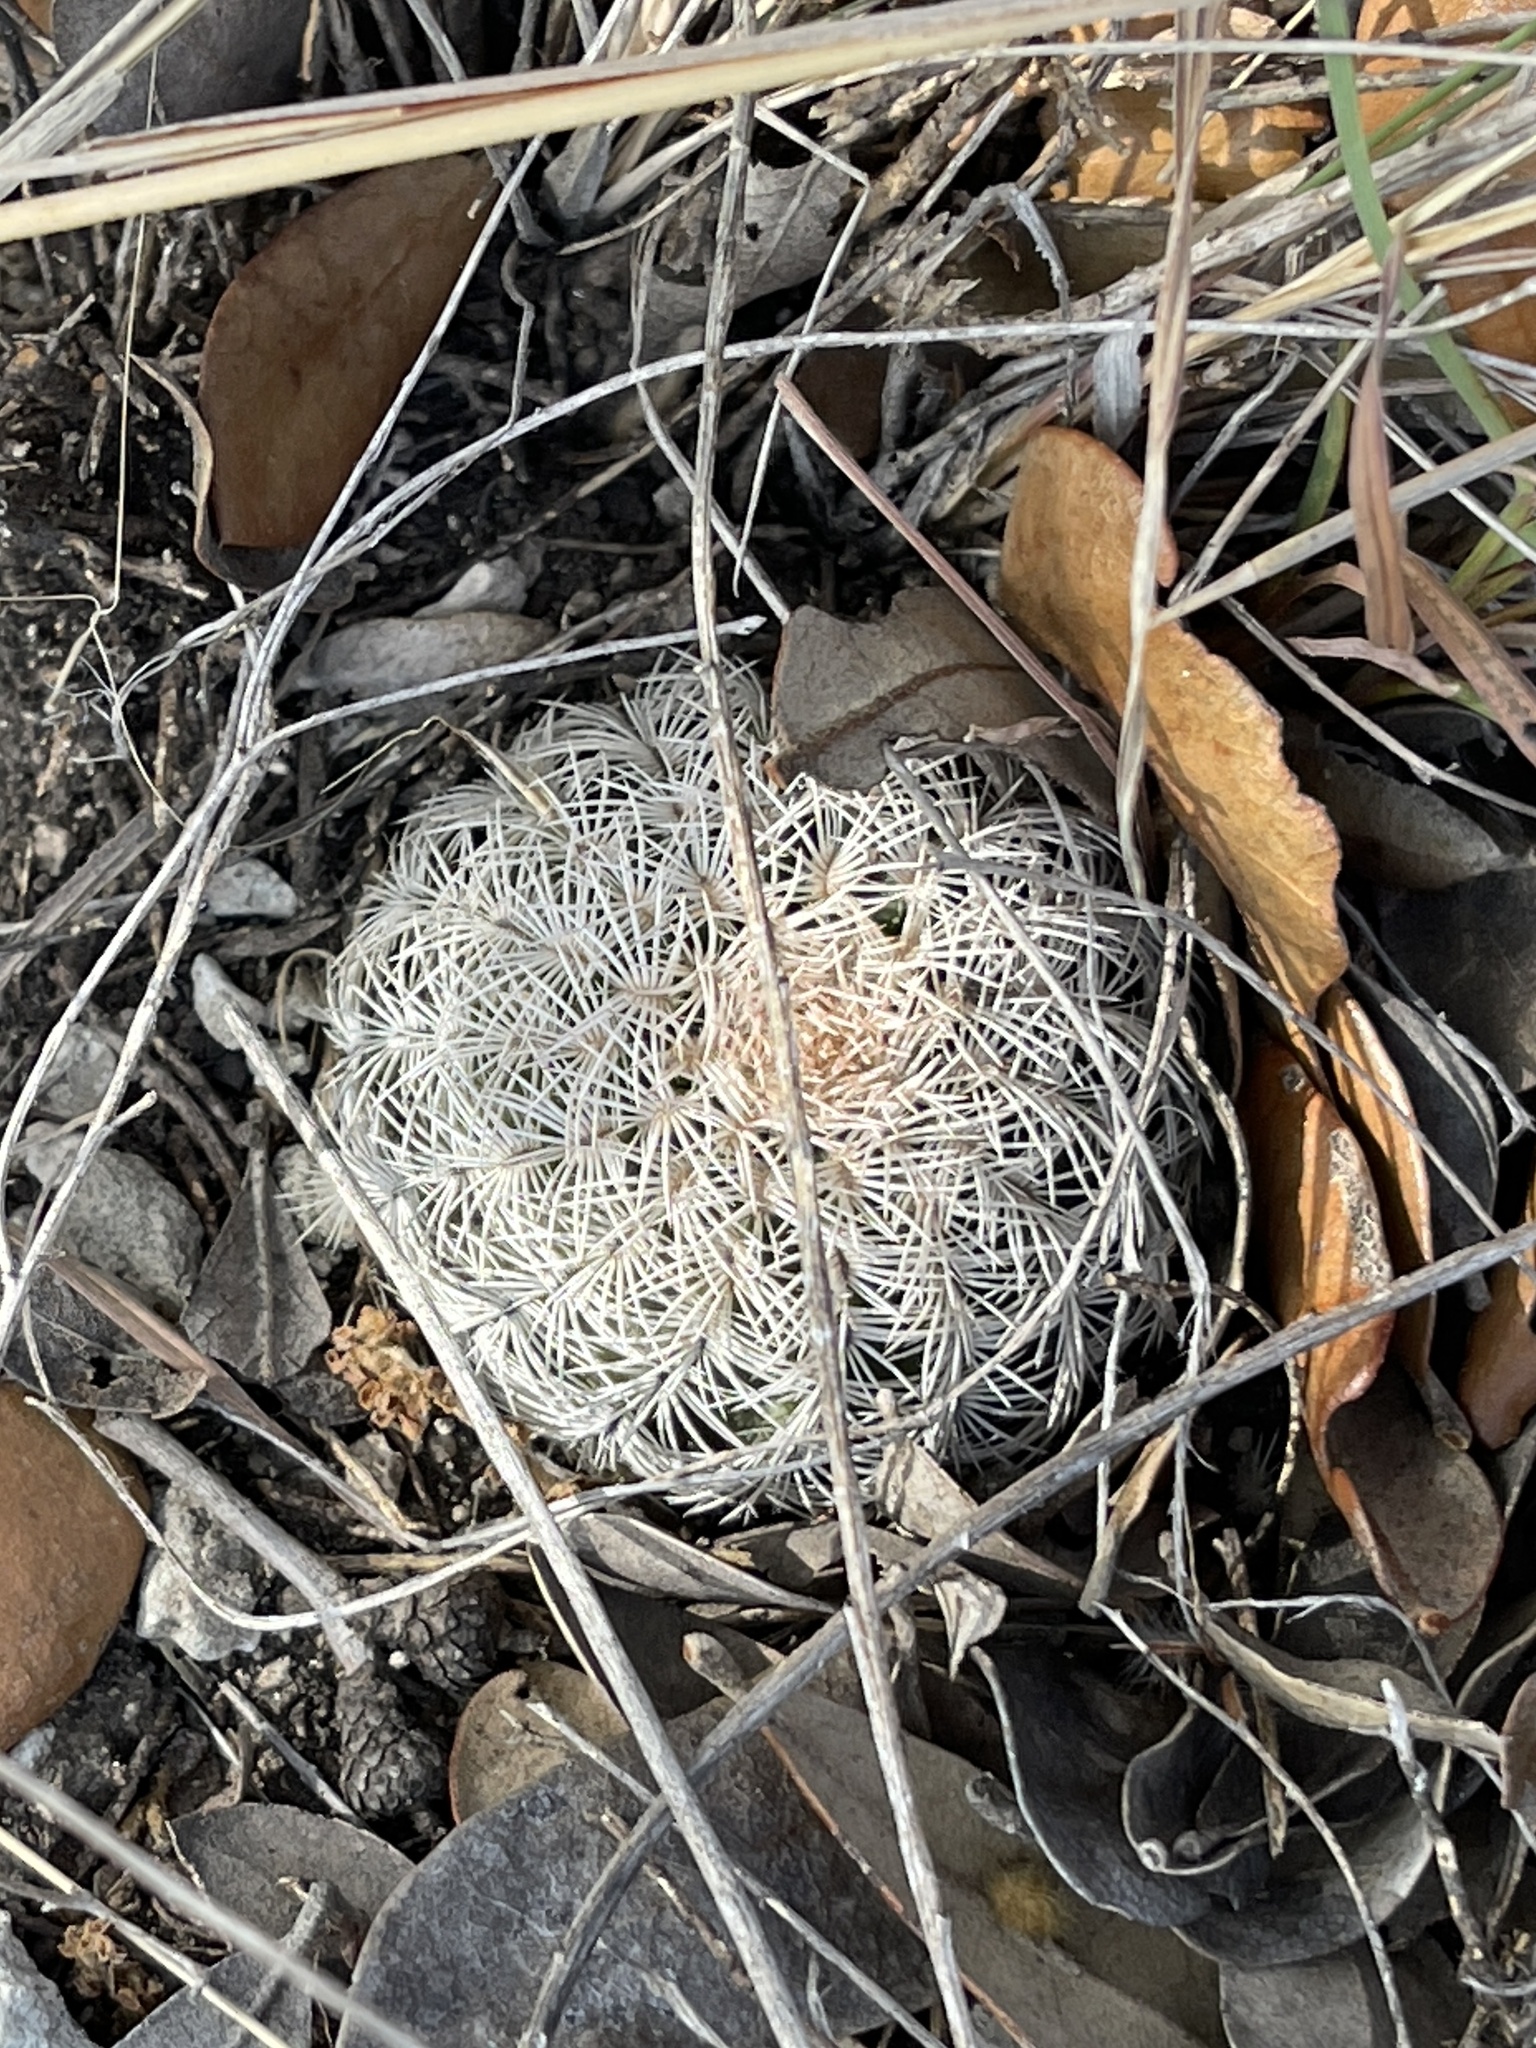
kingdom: Plantae
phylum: Tracheophyta
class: Magnoliopsida
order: Caryophyllales
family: Cactaceae
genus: Echinocereus
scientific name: Echinocereus reichenbachii
